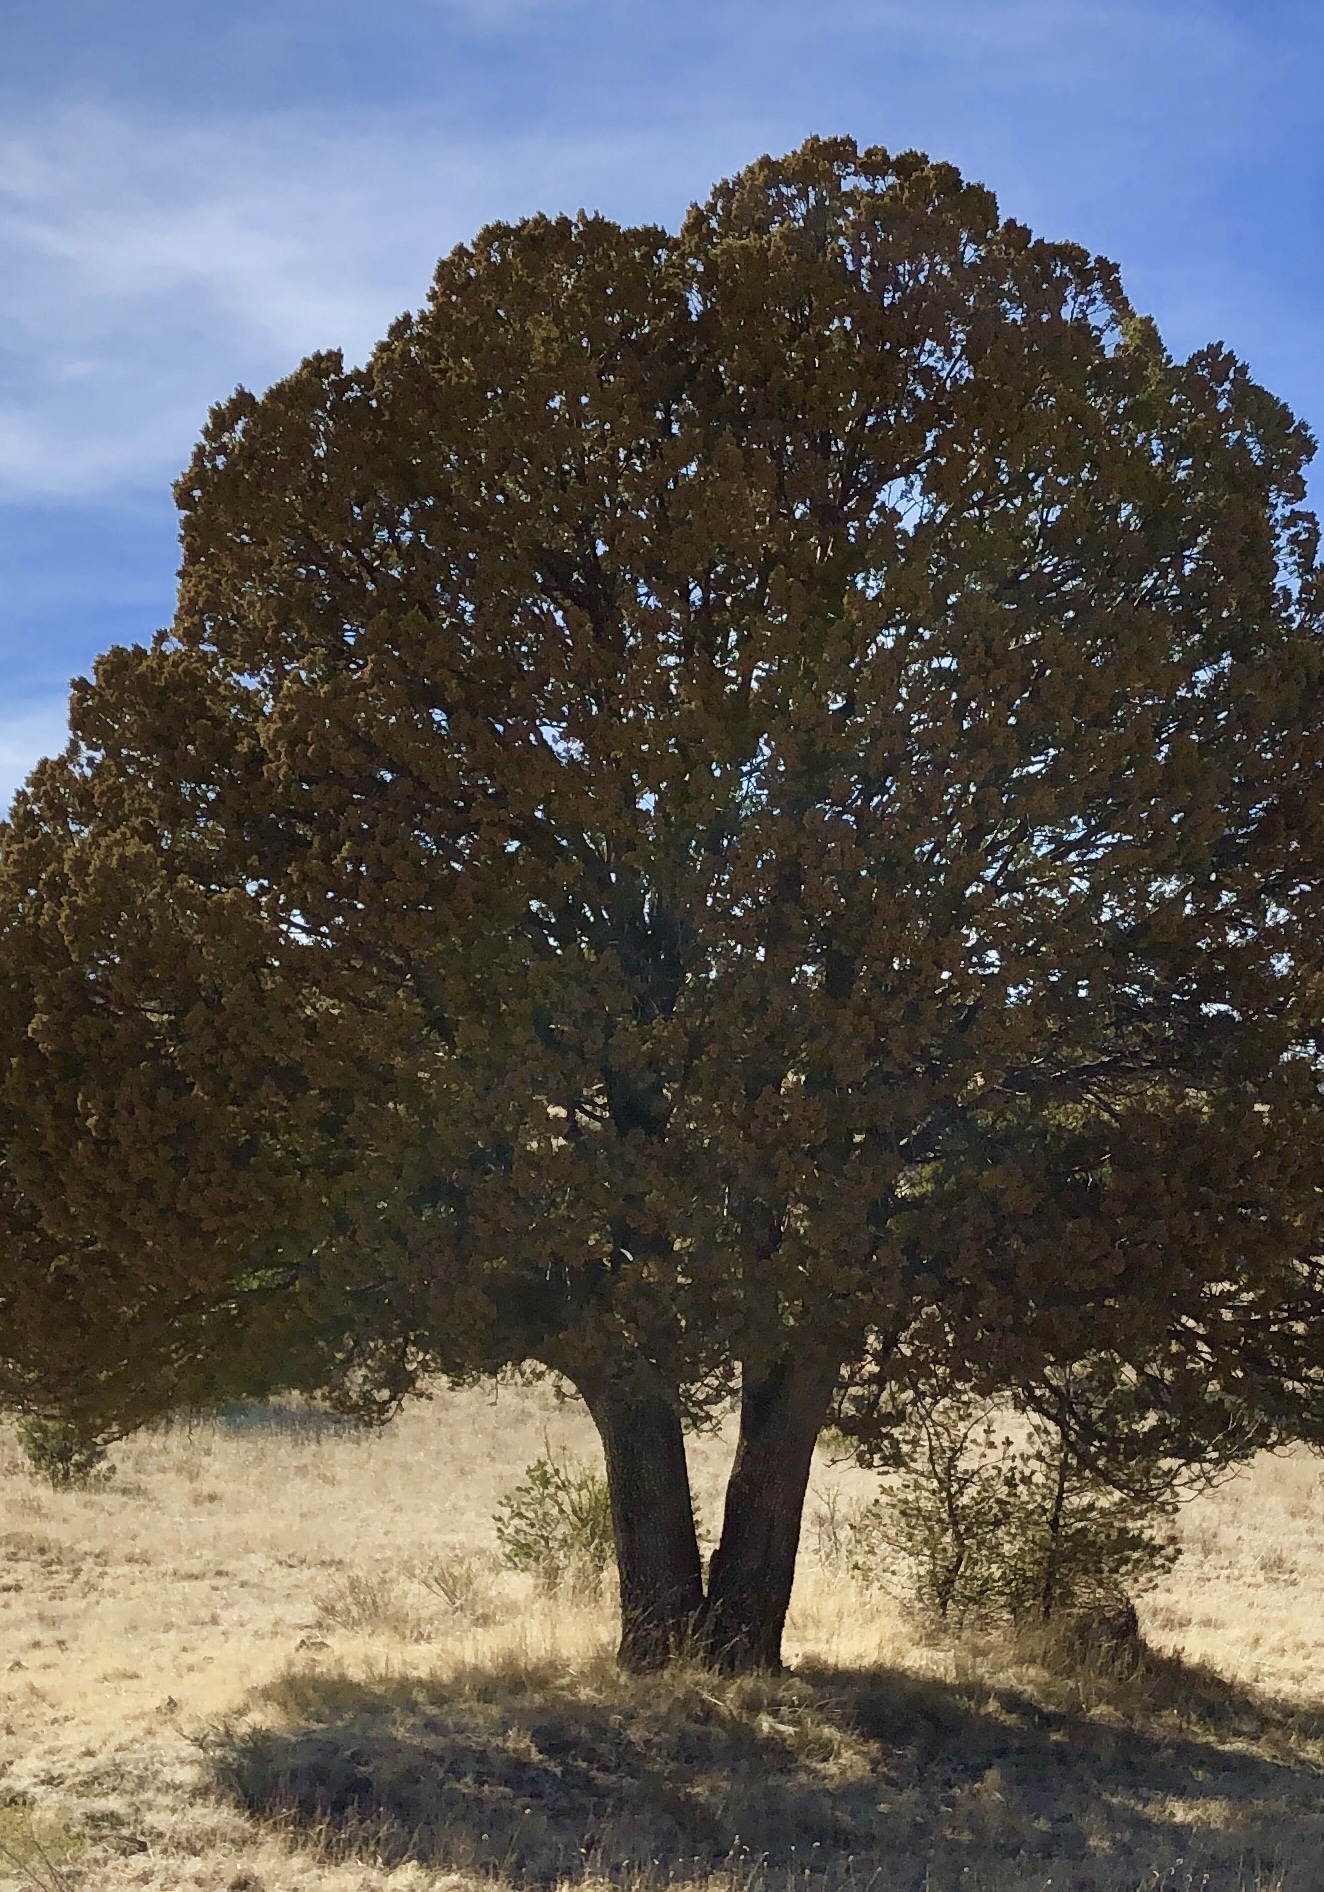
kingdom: Plantae
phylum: Tracheophyta
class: Pinopsida
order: Pinales
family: Cupressaceae
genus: Juniperus
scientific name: Juniperus deppeana
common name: Alligator juniper
